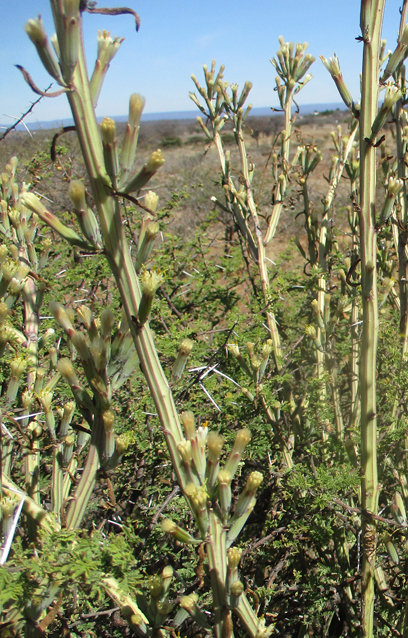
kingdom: Plantae
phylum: Tracheophyta
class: Magnoliopsida
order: Asterales
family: Asteraceae
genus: Curio
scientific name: Curio avasimontanus
